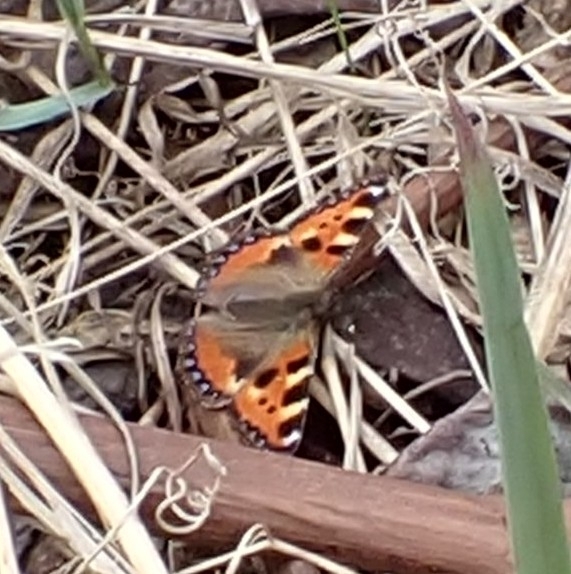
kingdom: Animalia
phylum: Arthropoda
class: Insecta
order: Lepidoptera
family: Nymphalidae
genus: Aglais
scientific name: Aglais urticae
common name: Small tortoiseshell
